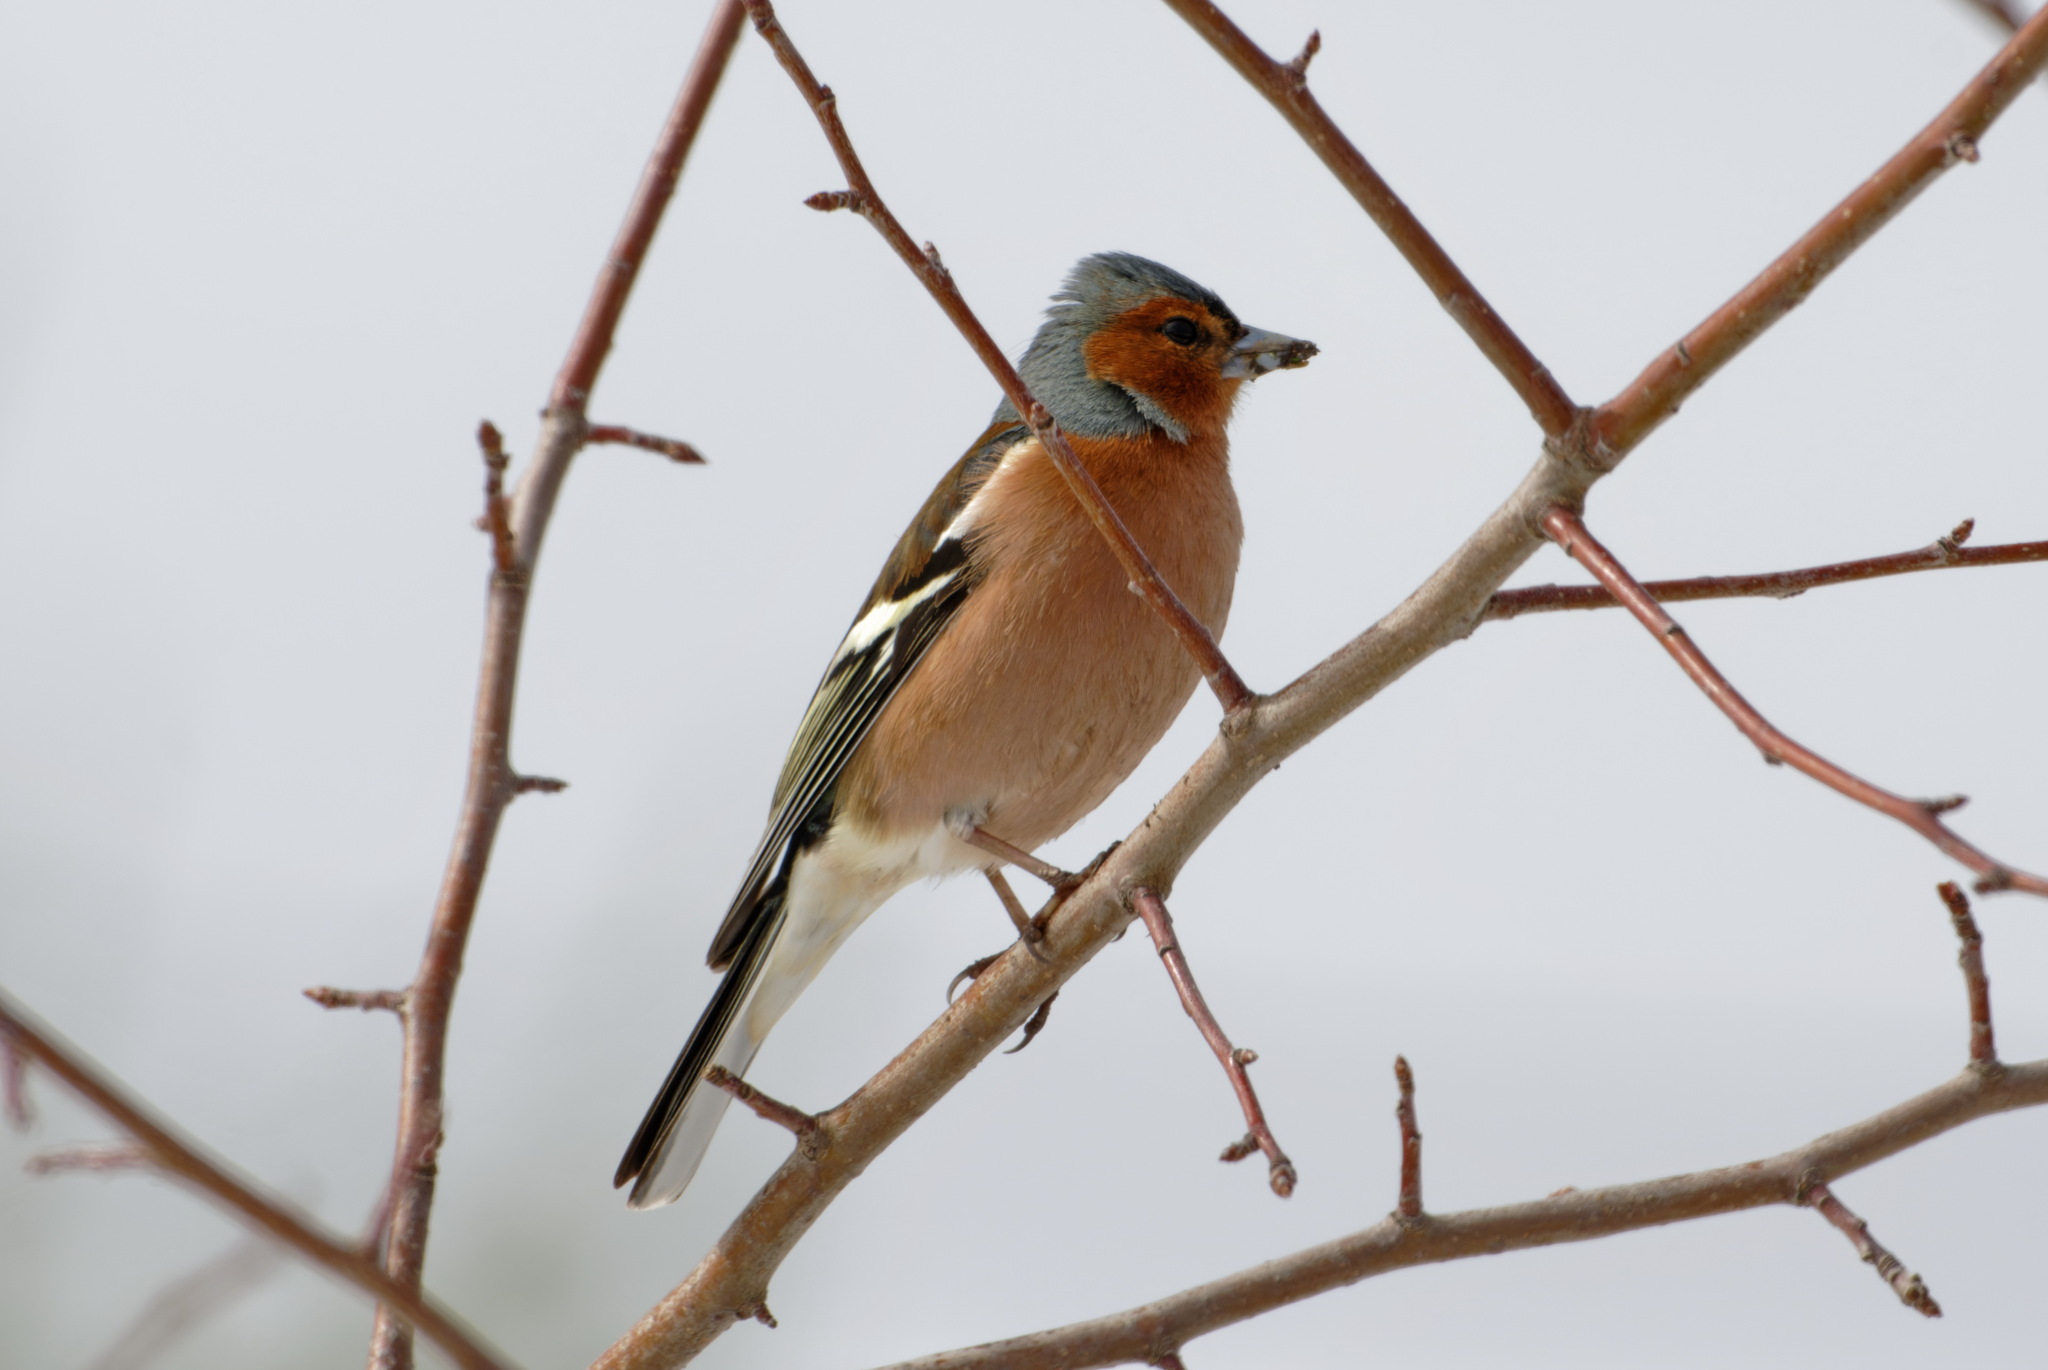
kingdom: Animalia
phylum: Chordata
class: Aves
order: Passeriformes
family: Fringillidae
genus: Fringilla
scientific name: Fringilla coelebs
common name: Common chaffinch
